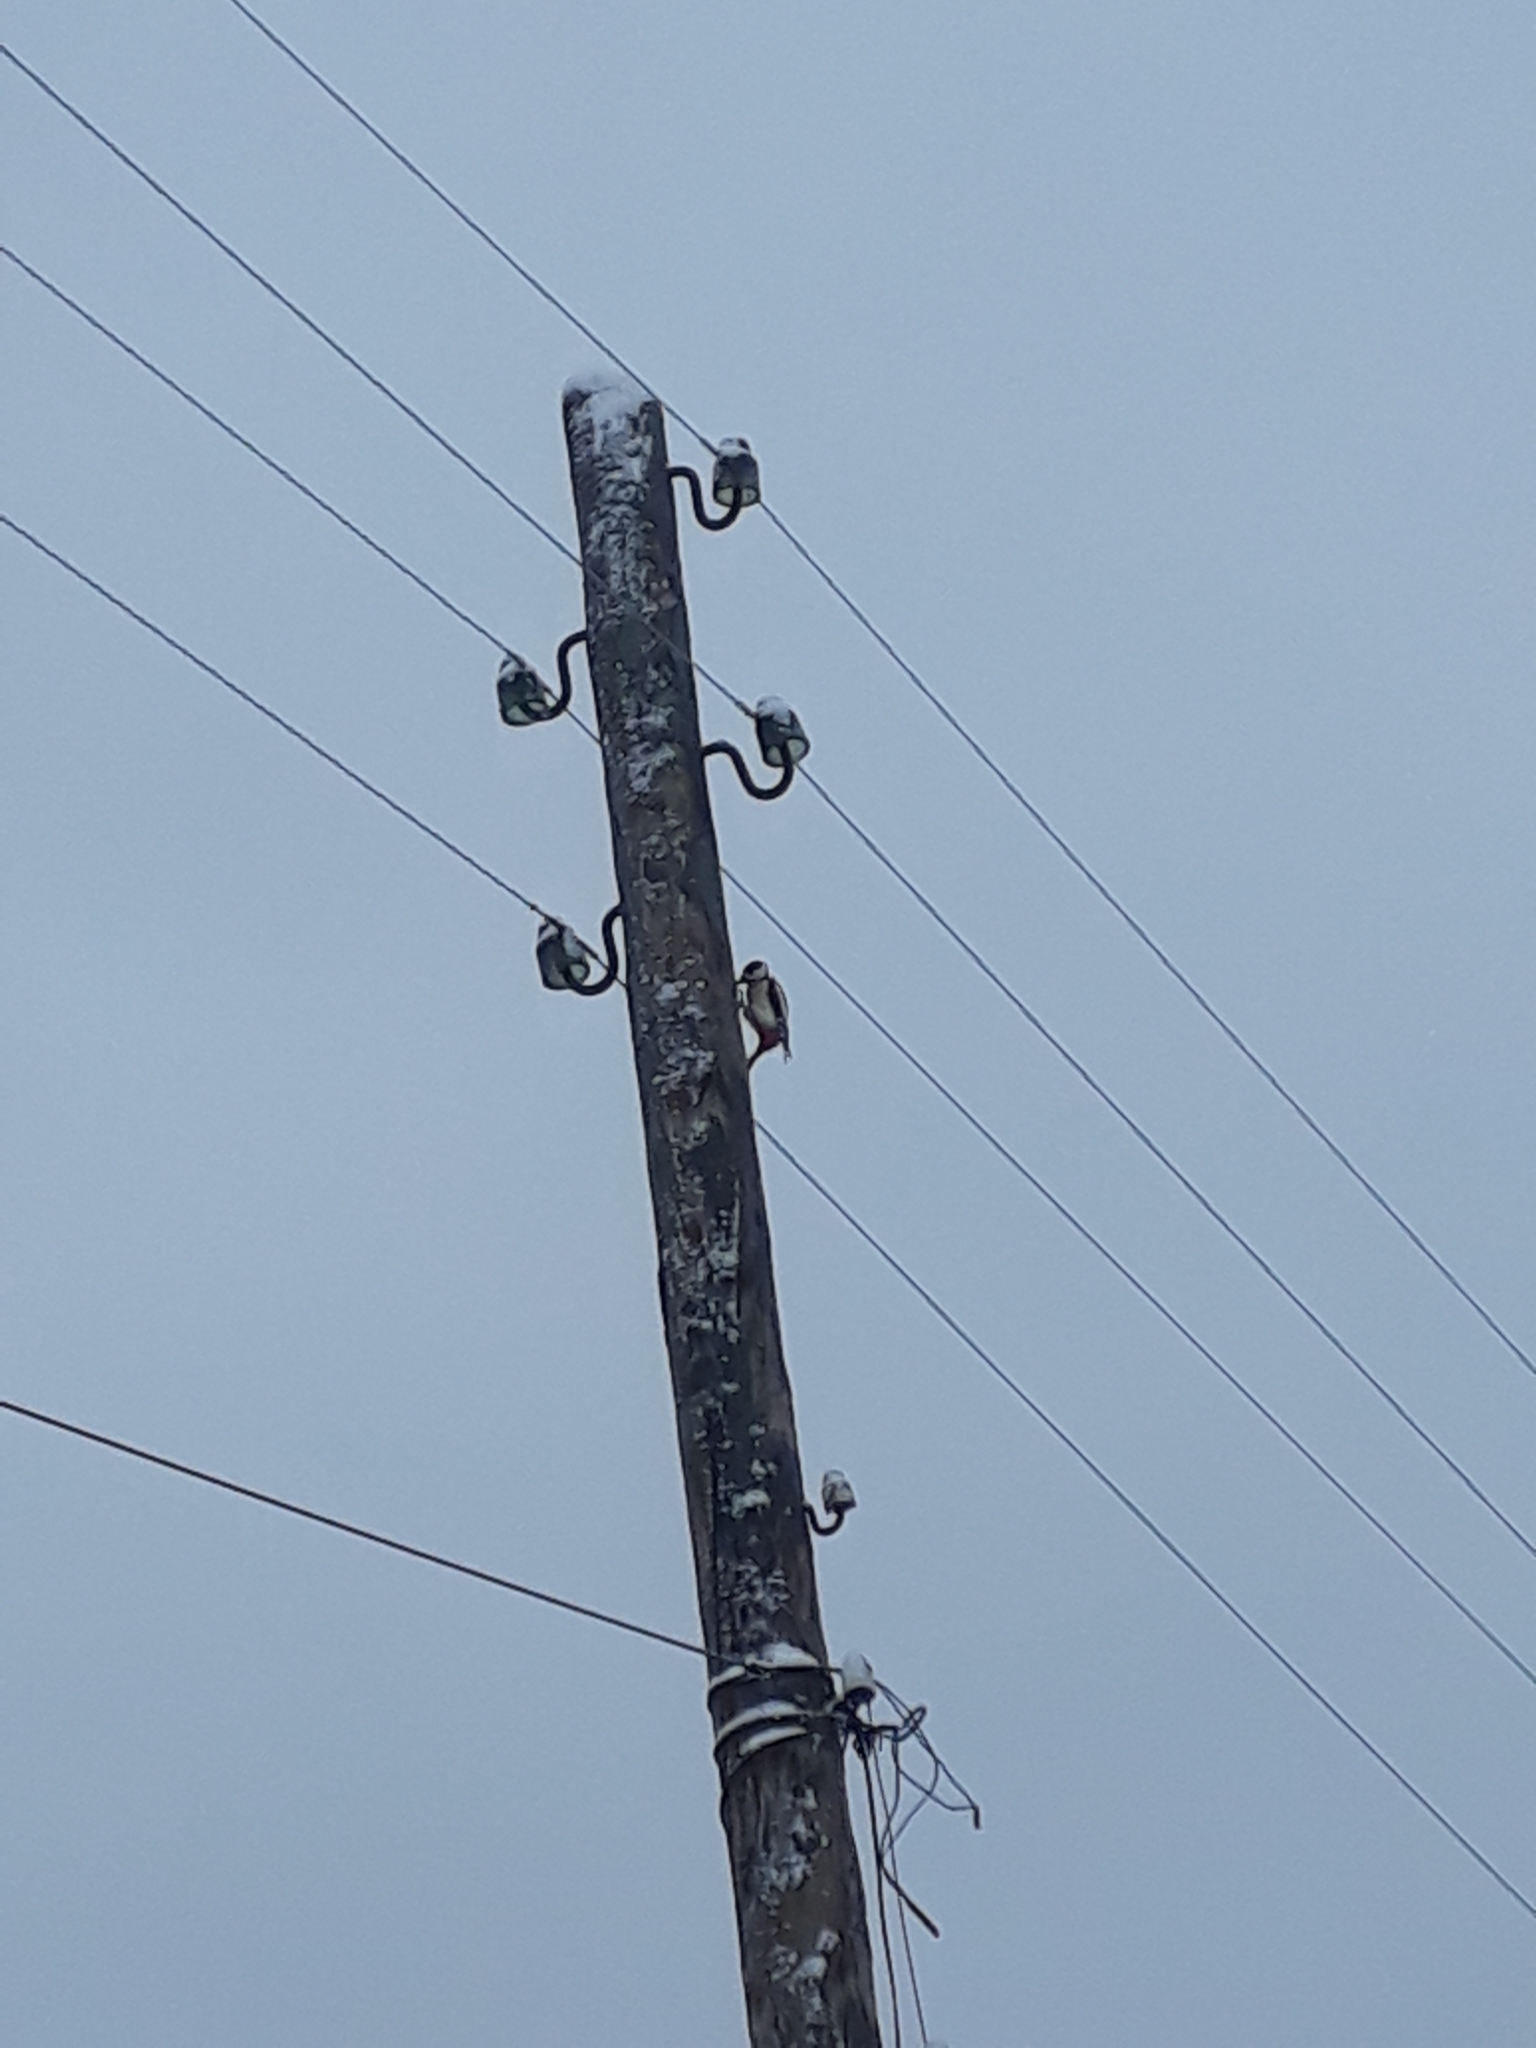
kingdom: Animalia
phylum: Chordata
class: Aves
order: Piciformes
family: Picidae
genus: Dendrocopos
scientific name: Dendrocopos major
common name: Great spotted woodpecker
